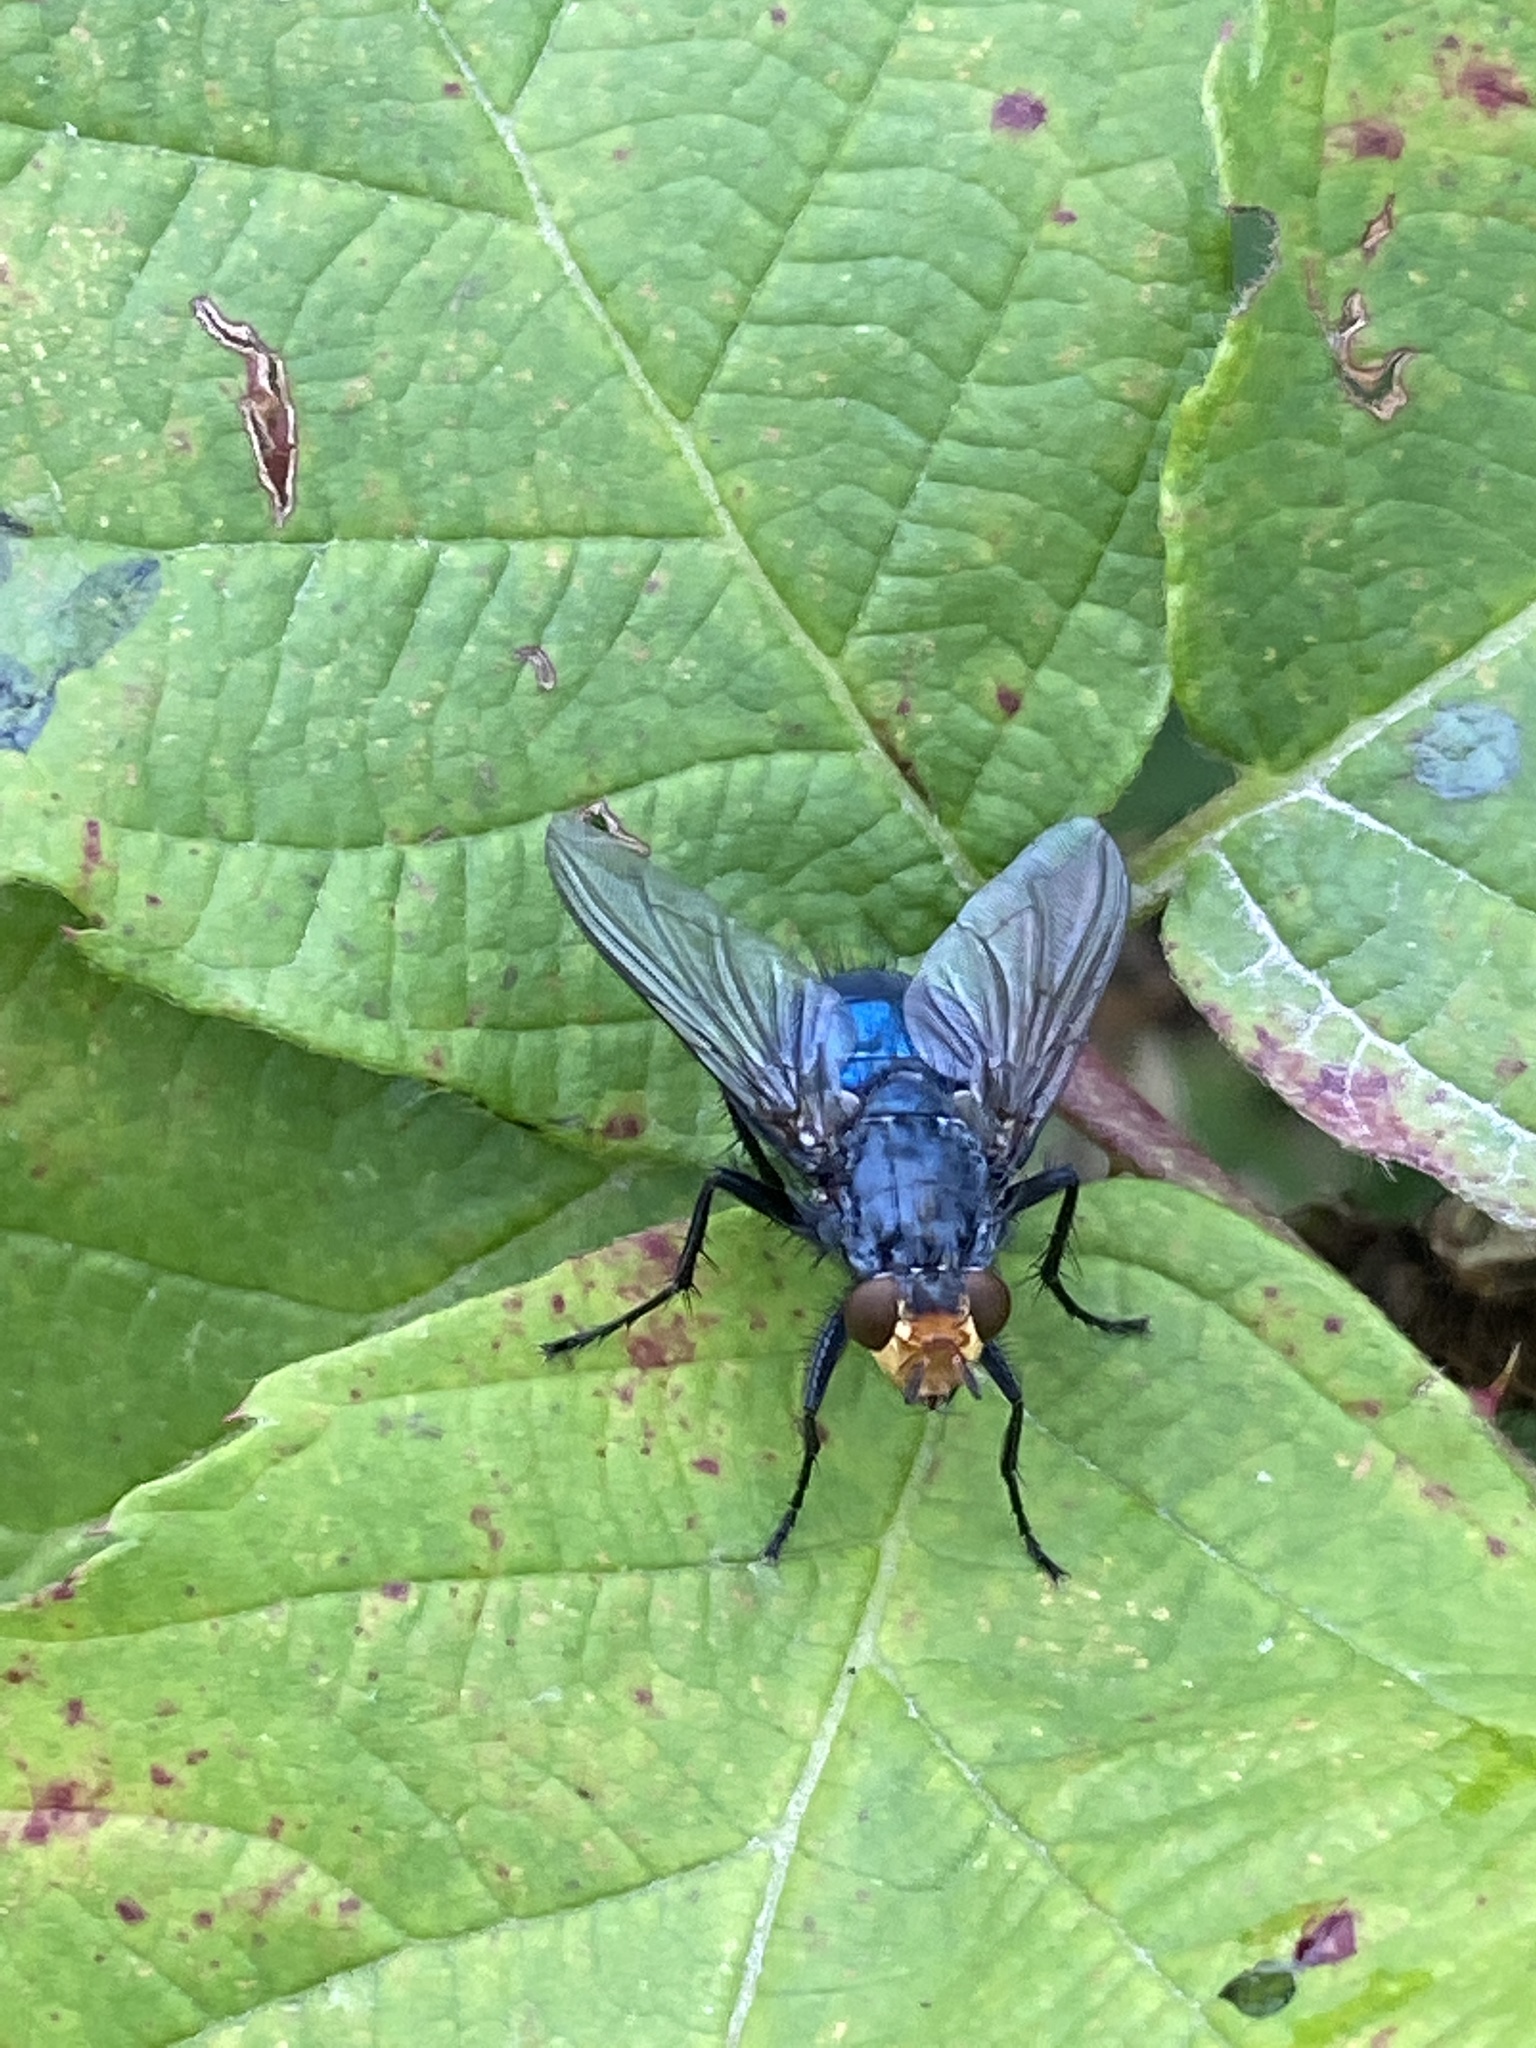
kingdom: Animalia
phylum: Arthropoda
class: Insecta
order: Diptera
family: Calliphoridae
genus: Cynomya
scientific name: Cynomya mortuorum
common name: Bluebottle blow fly
